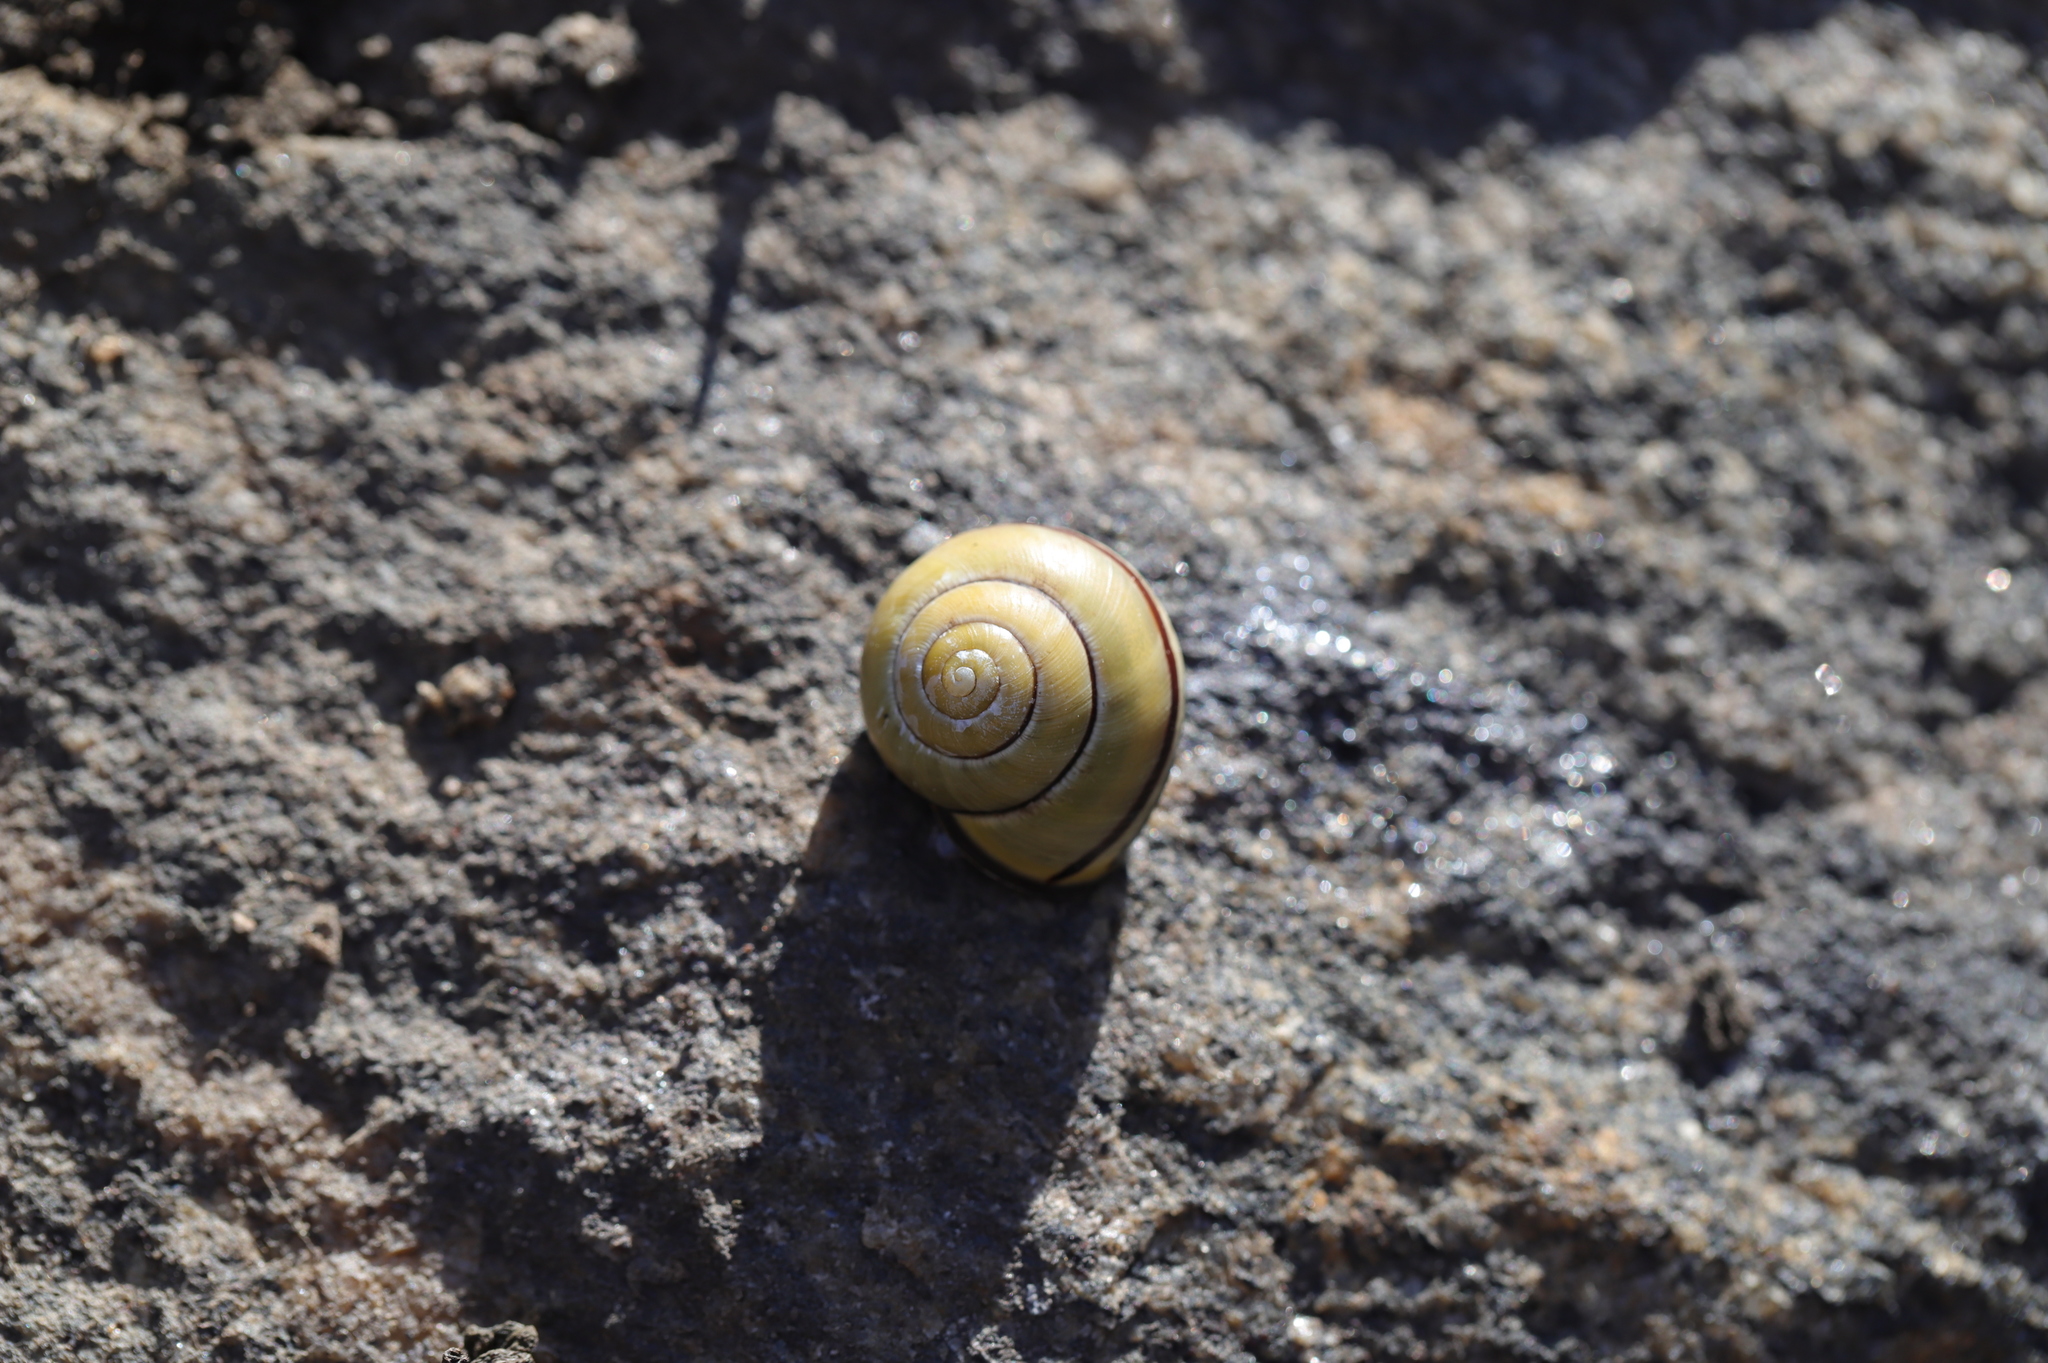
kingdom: Animalia
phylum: Mollusca
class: Gastropoda
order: Stylommatophora
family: Helicidae
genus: Cepaea
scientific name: Cepaea nemoralis
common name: Grovesnail
